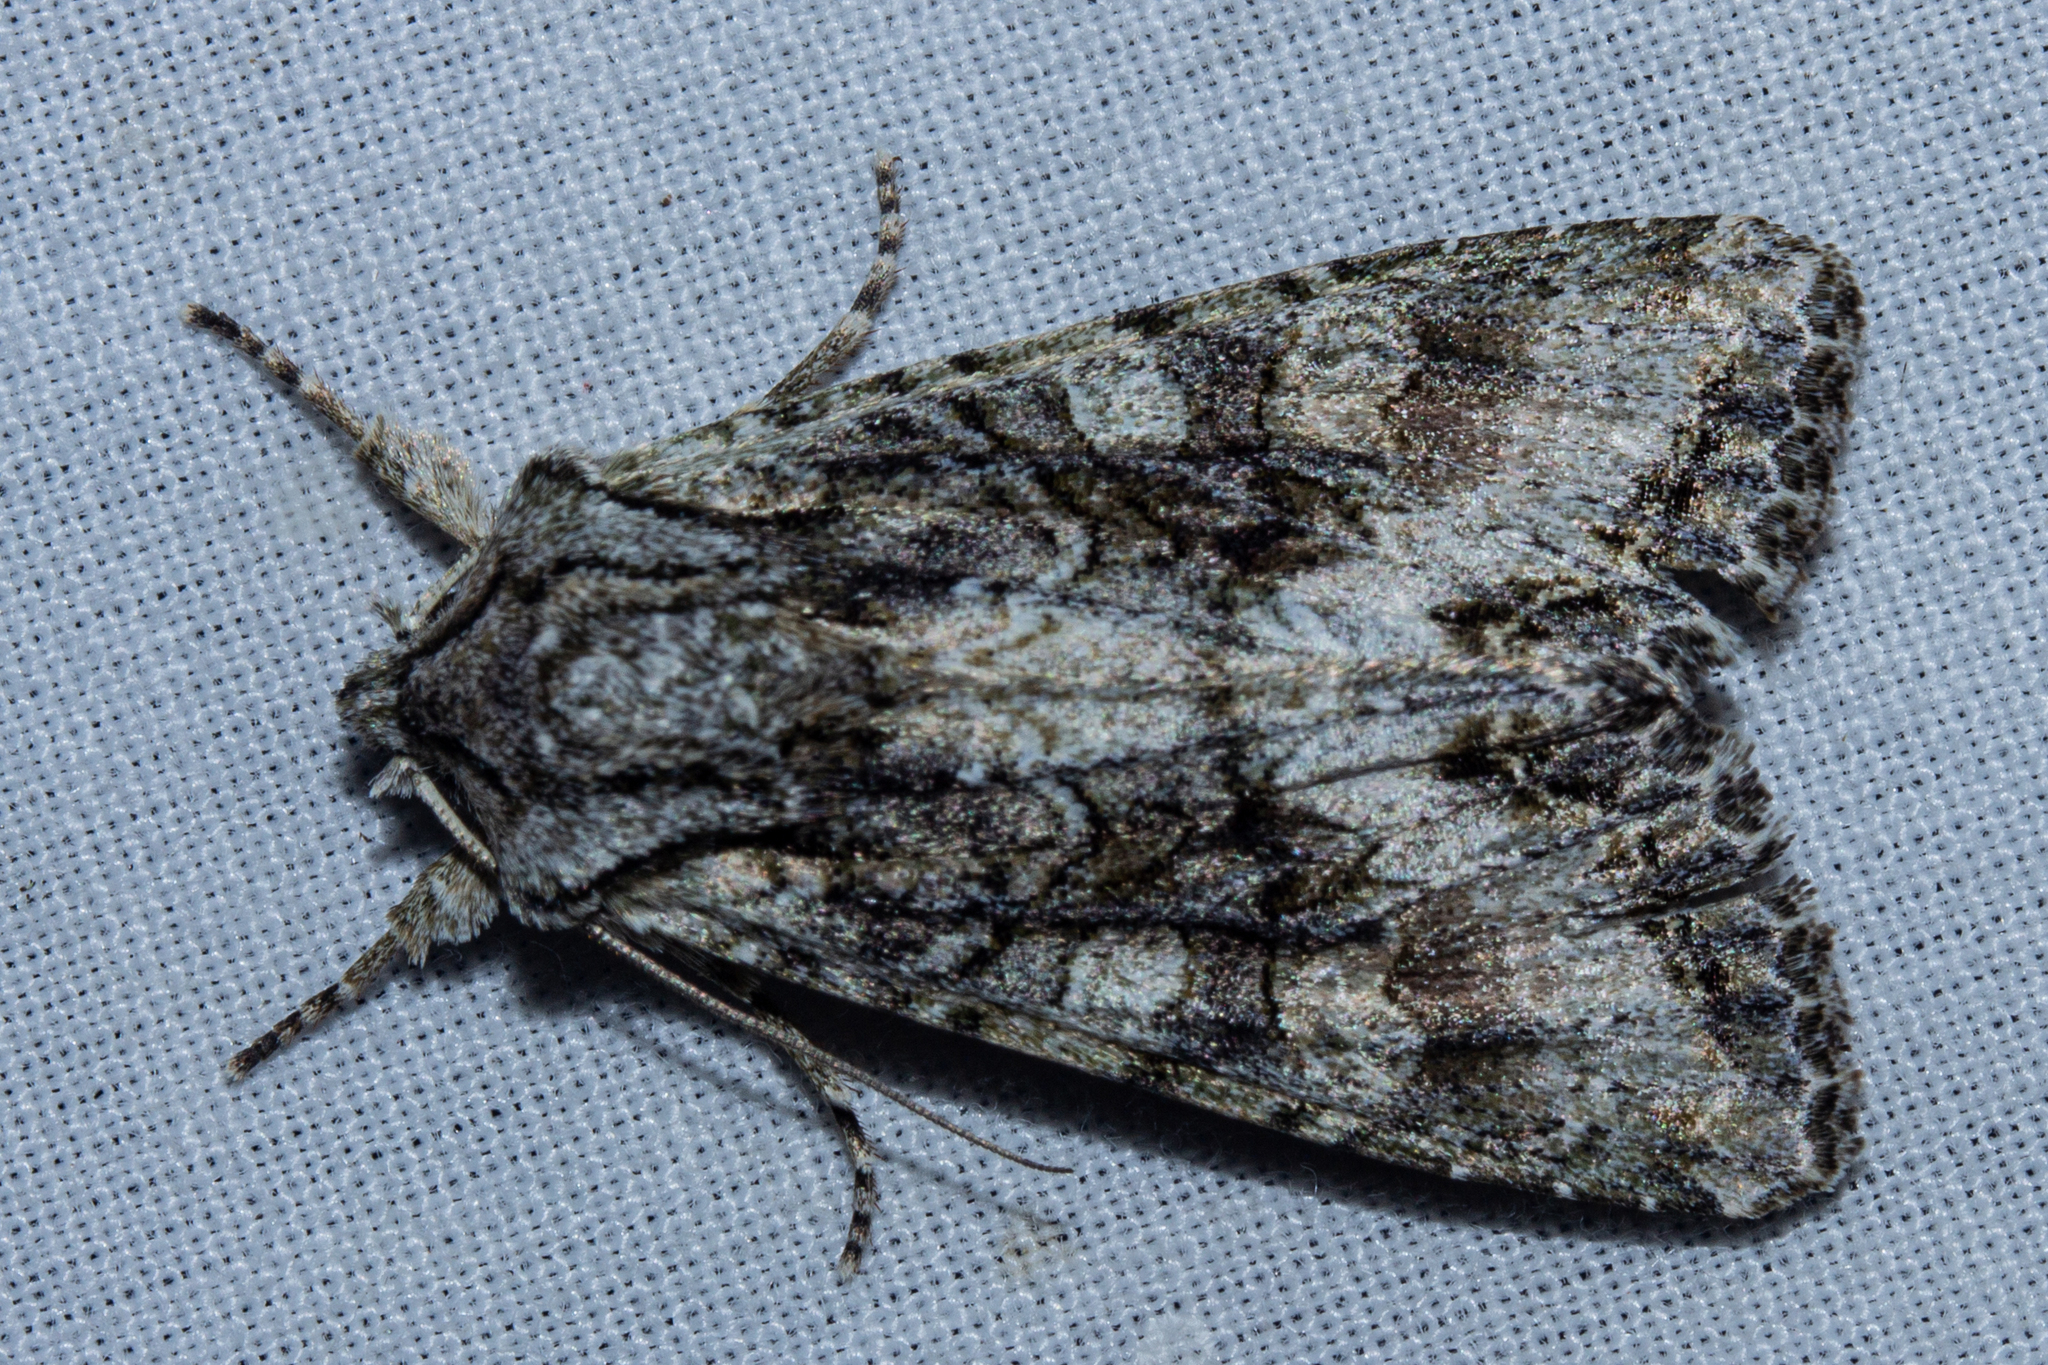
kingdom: Animalia
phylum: Arthropoda
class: Insecta
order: Lepidoptera
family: Noctuidae
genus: Ichneutica
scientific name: Ichneutica mutans
